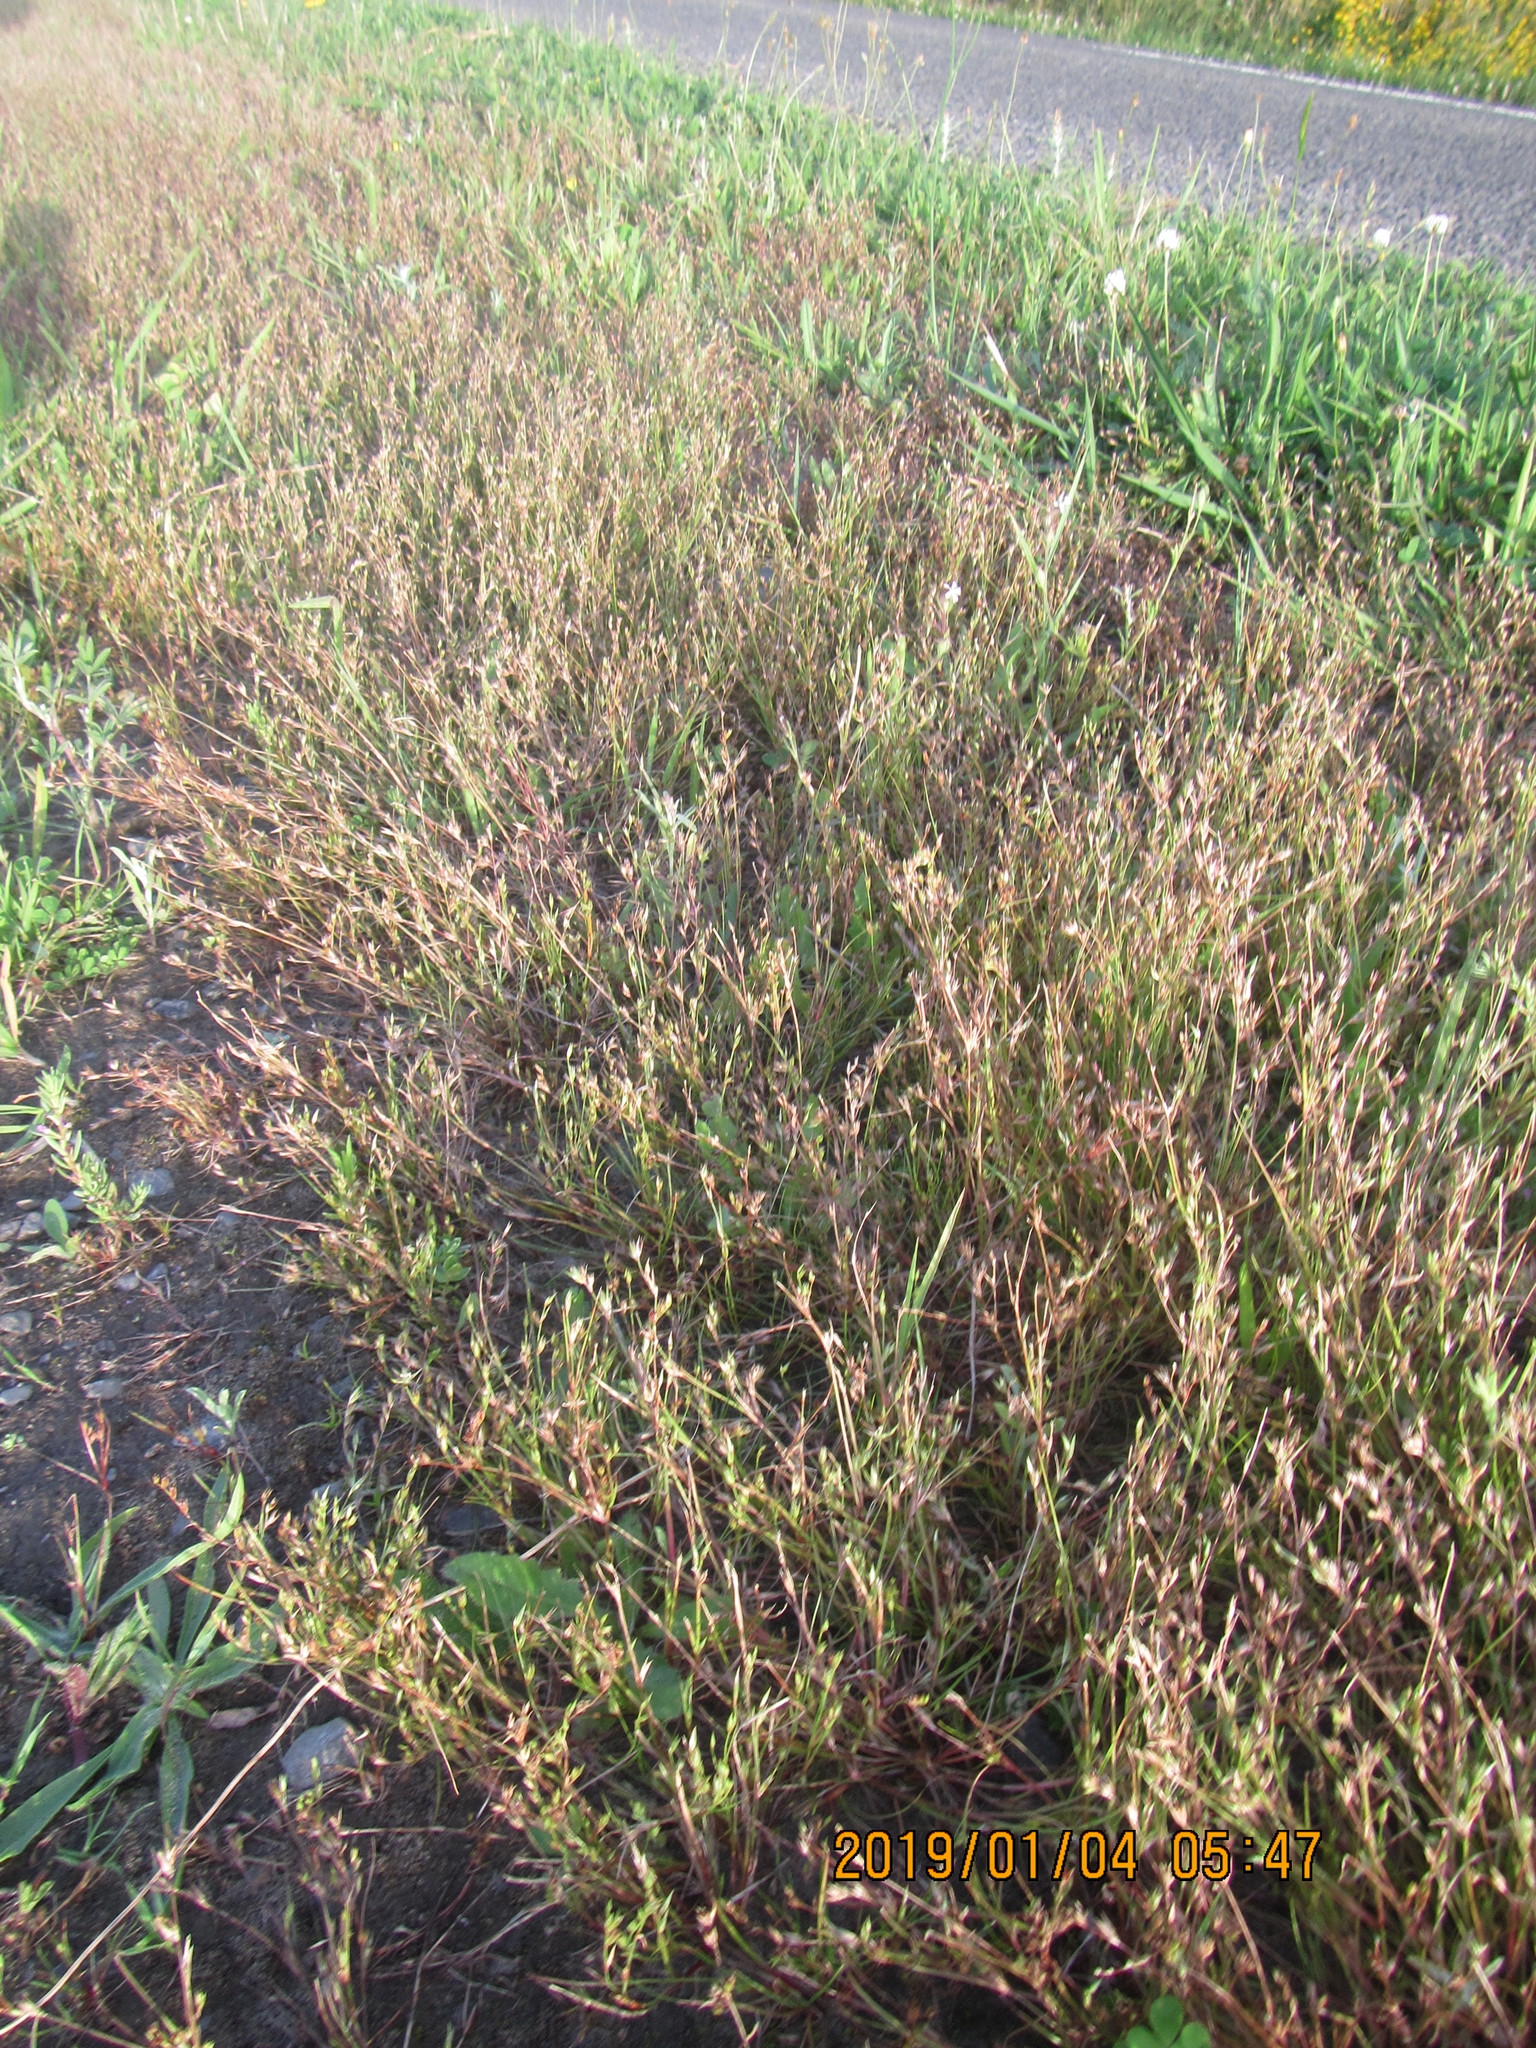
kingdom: Plantae
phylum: Tracheophyta
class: Liliopsida
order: Poales
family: Juncaceae
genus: Juncus
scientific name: Juncus bufonius
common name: Toad rush
